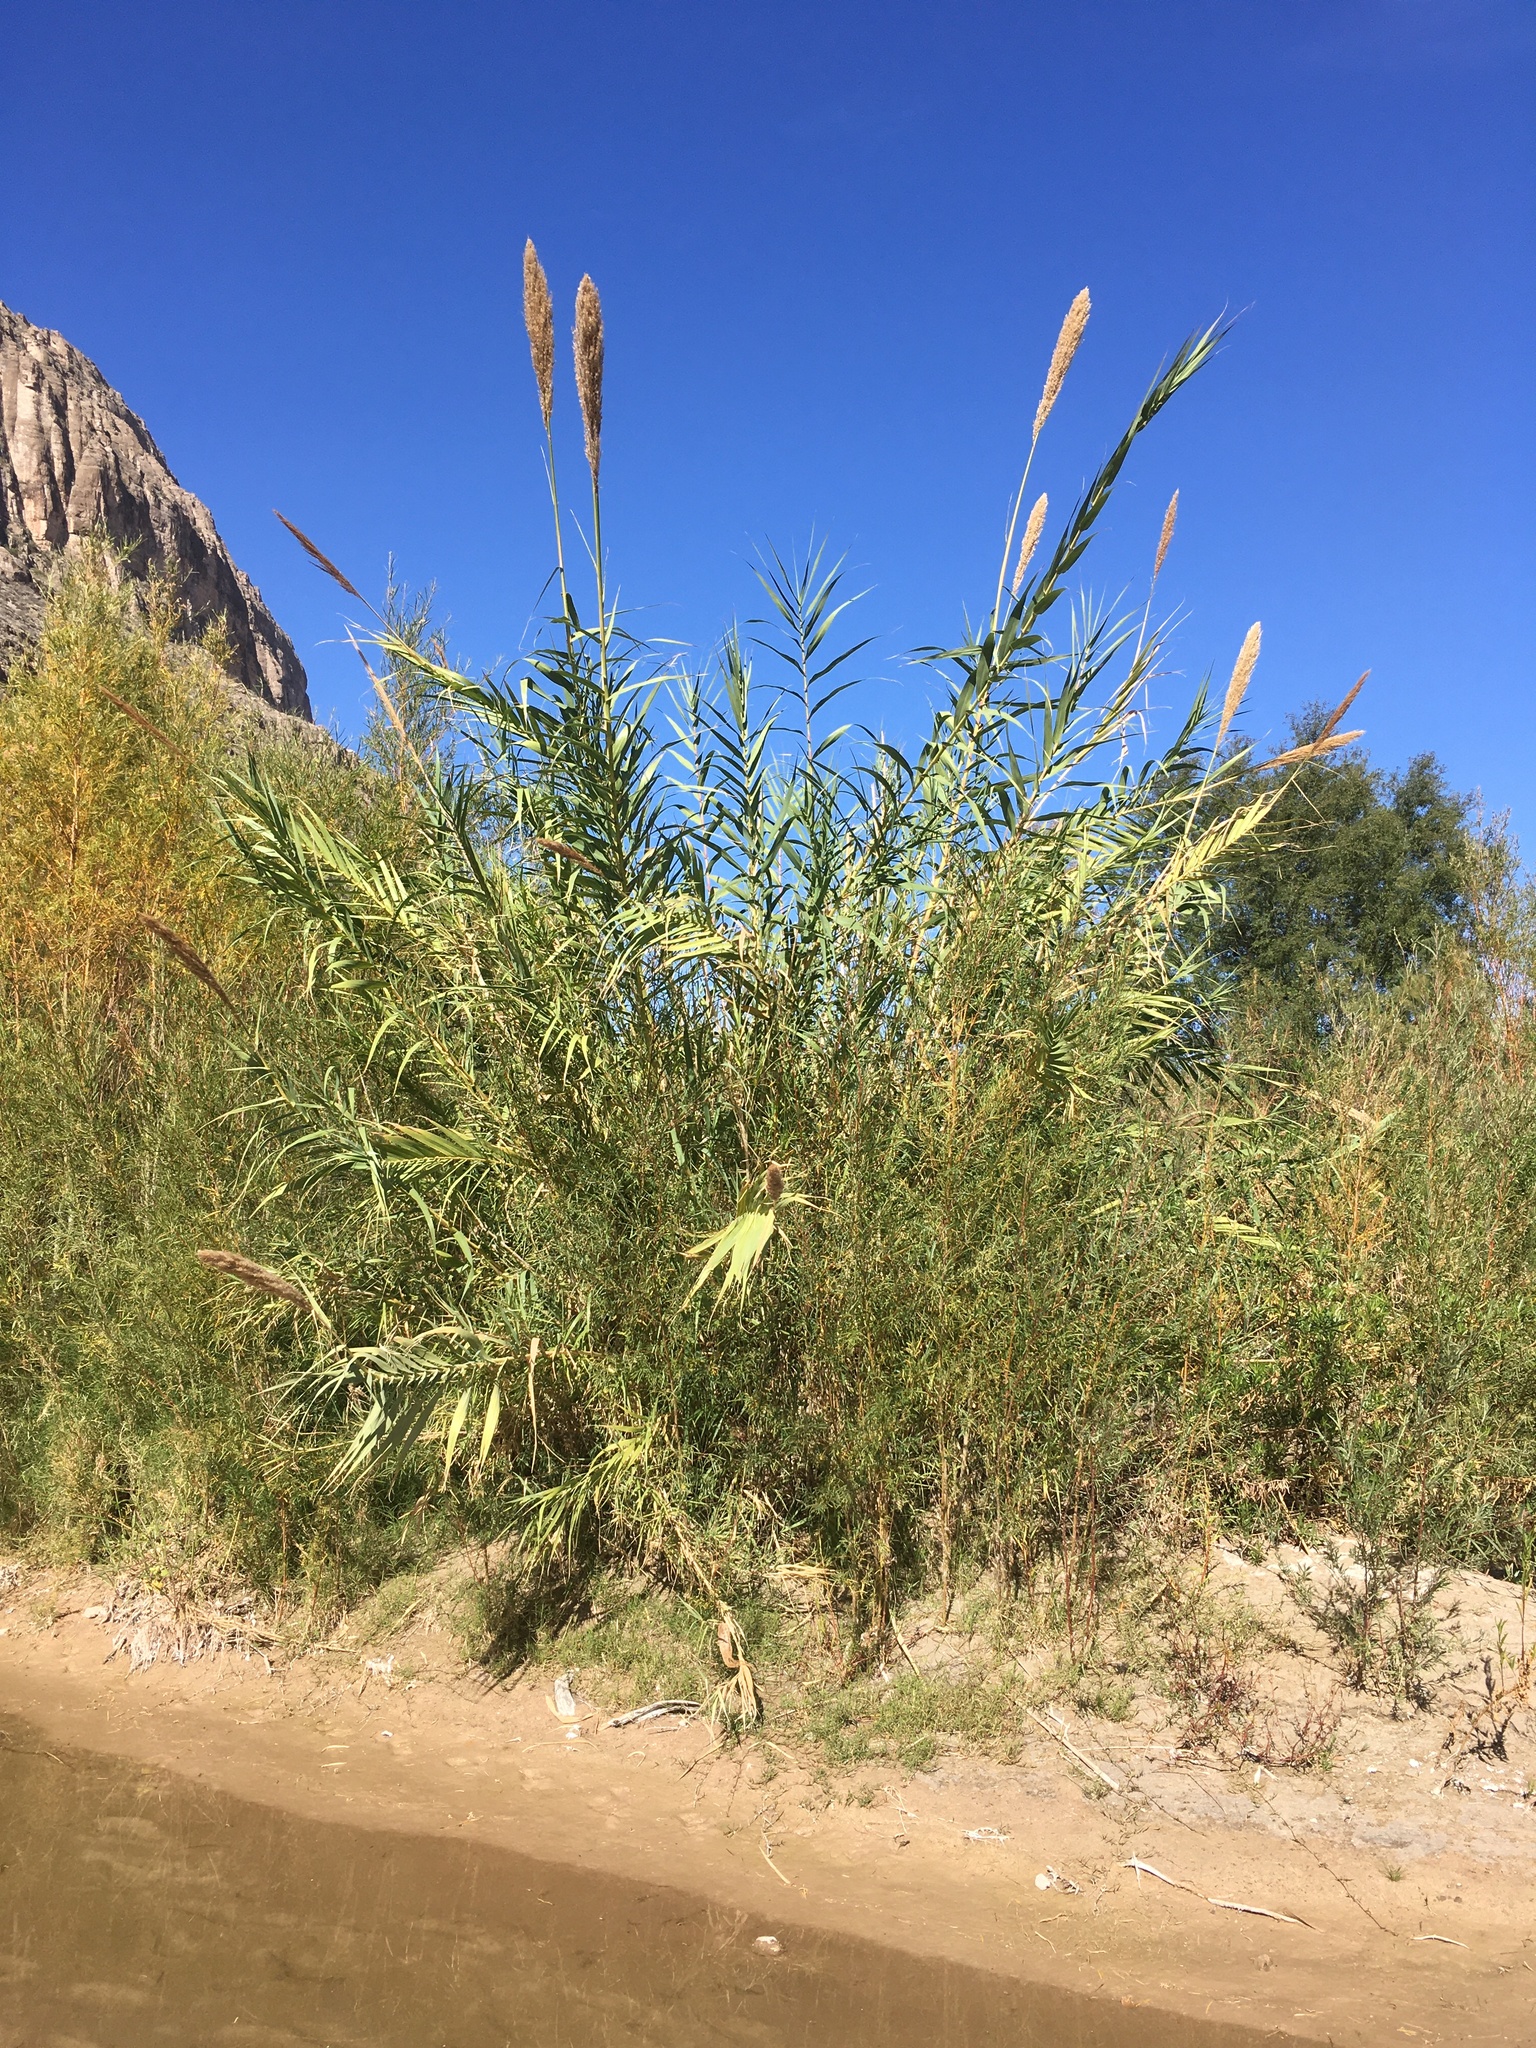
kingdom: Plantae
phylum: Tracheophyta
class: Liliopsida
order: Poales
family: Poaceae
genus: Arundo
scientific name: Arundo donax
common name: Giant reed
